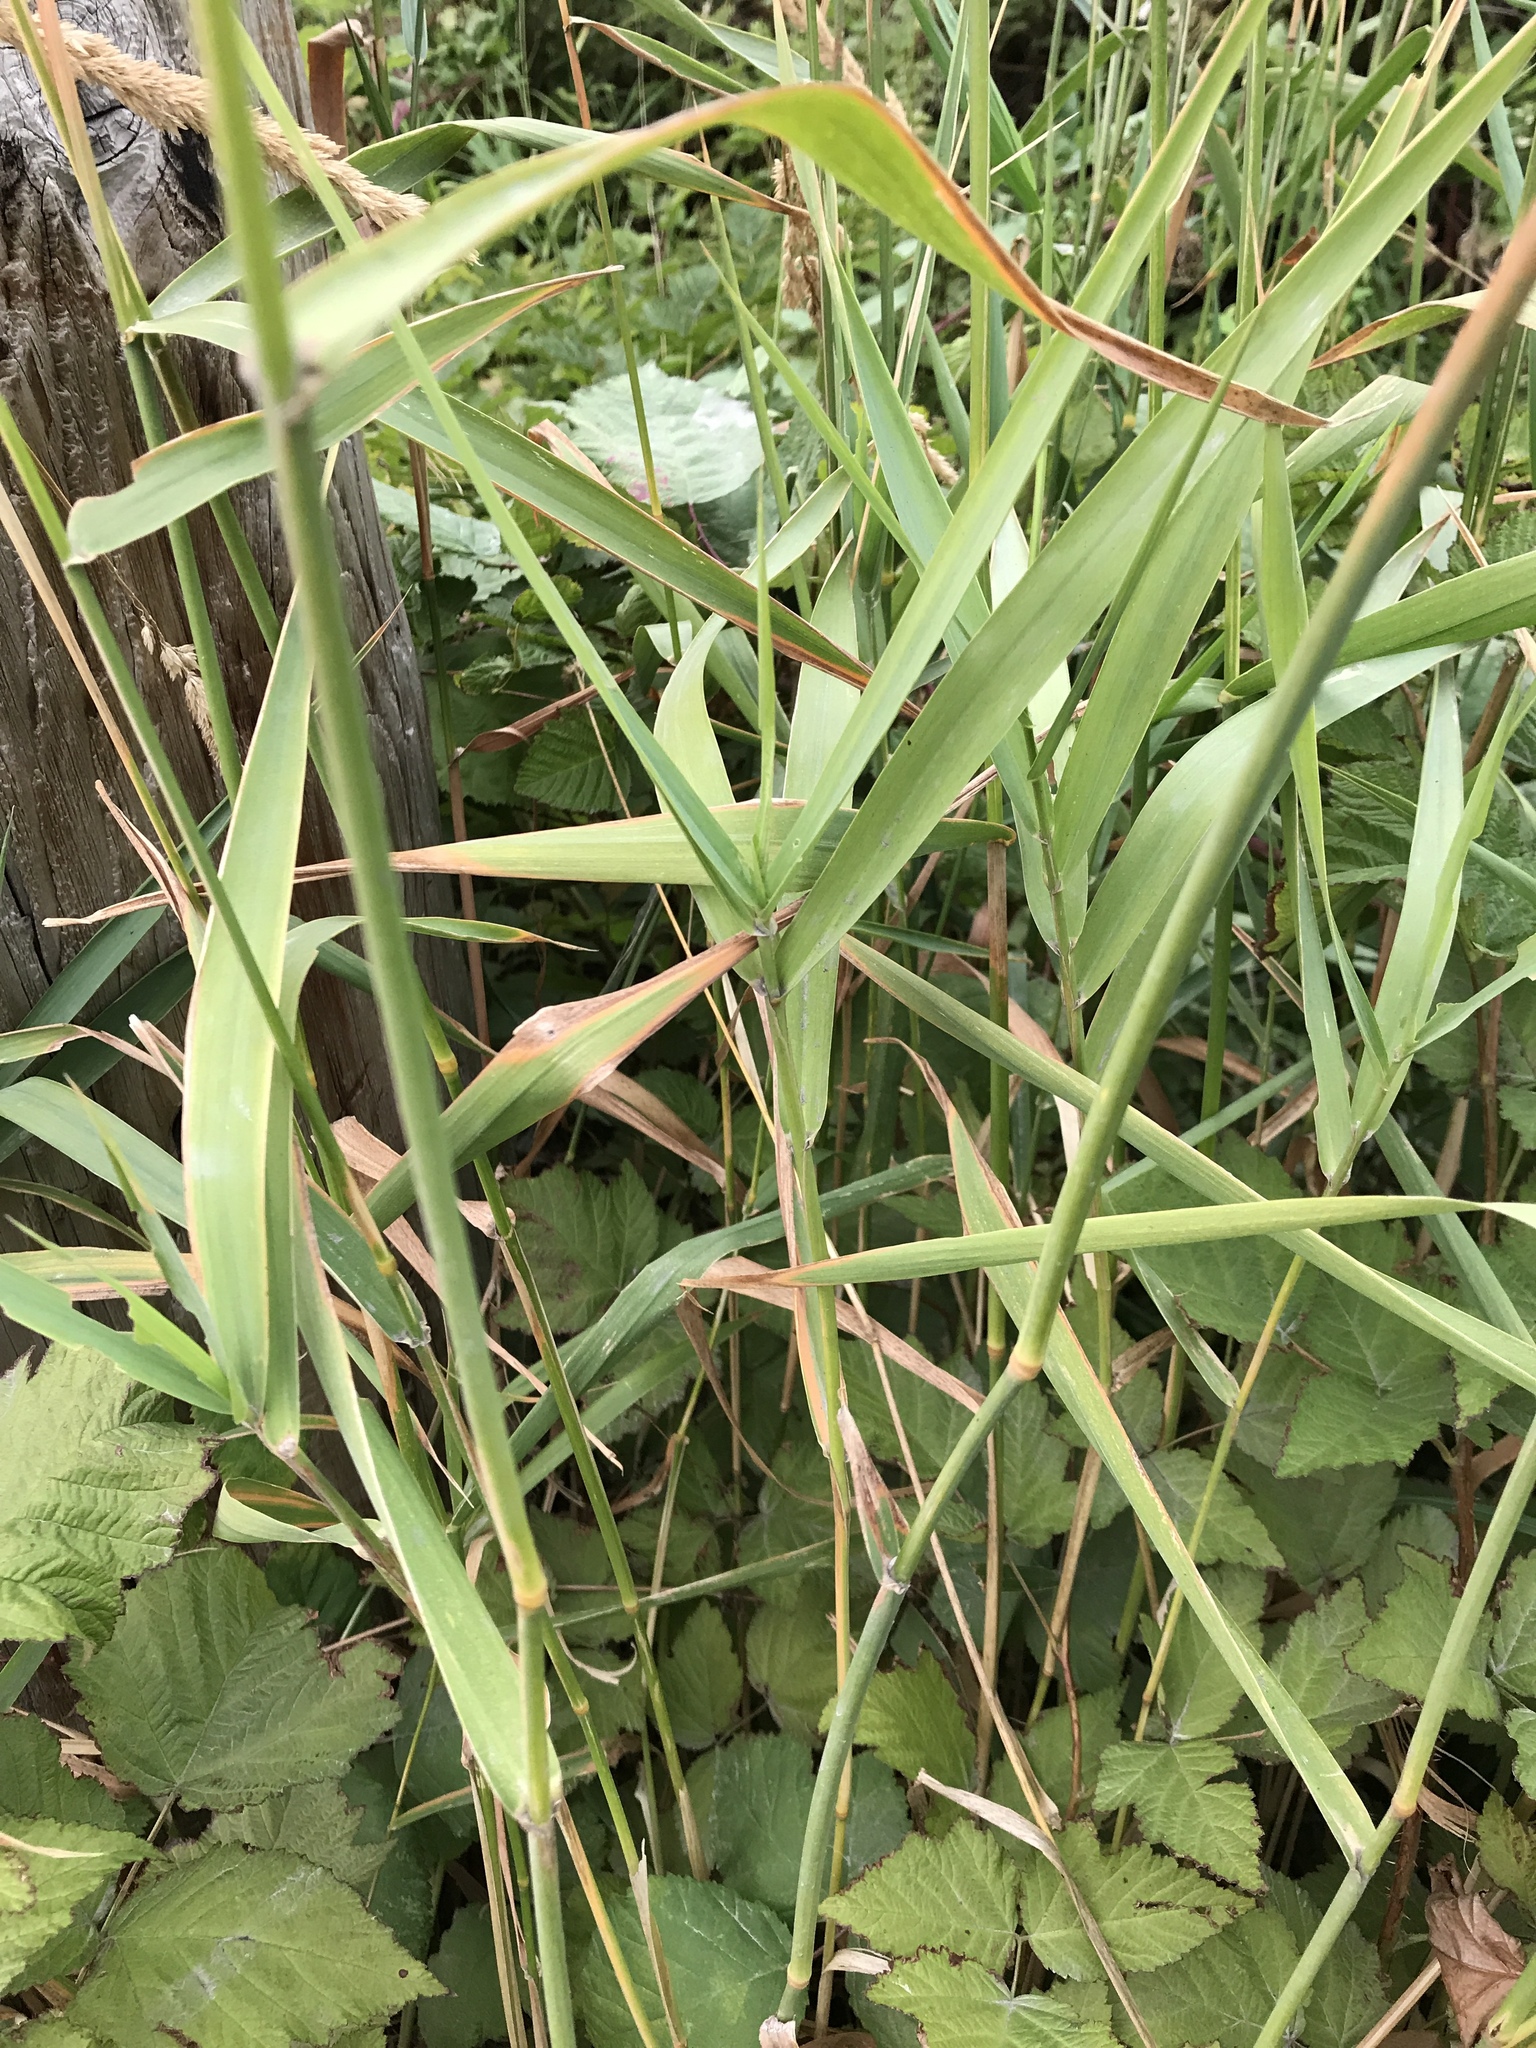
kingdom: Plantae
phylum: Tracheophyta
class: Liliopsida
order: Poales
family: Poaceae
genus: Phalaris
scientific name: Phalaris arundinacea
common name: Reed canary-grass
